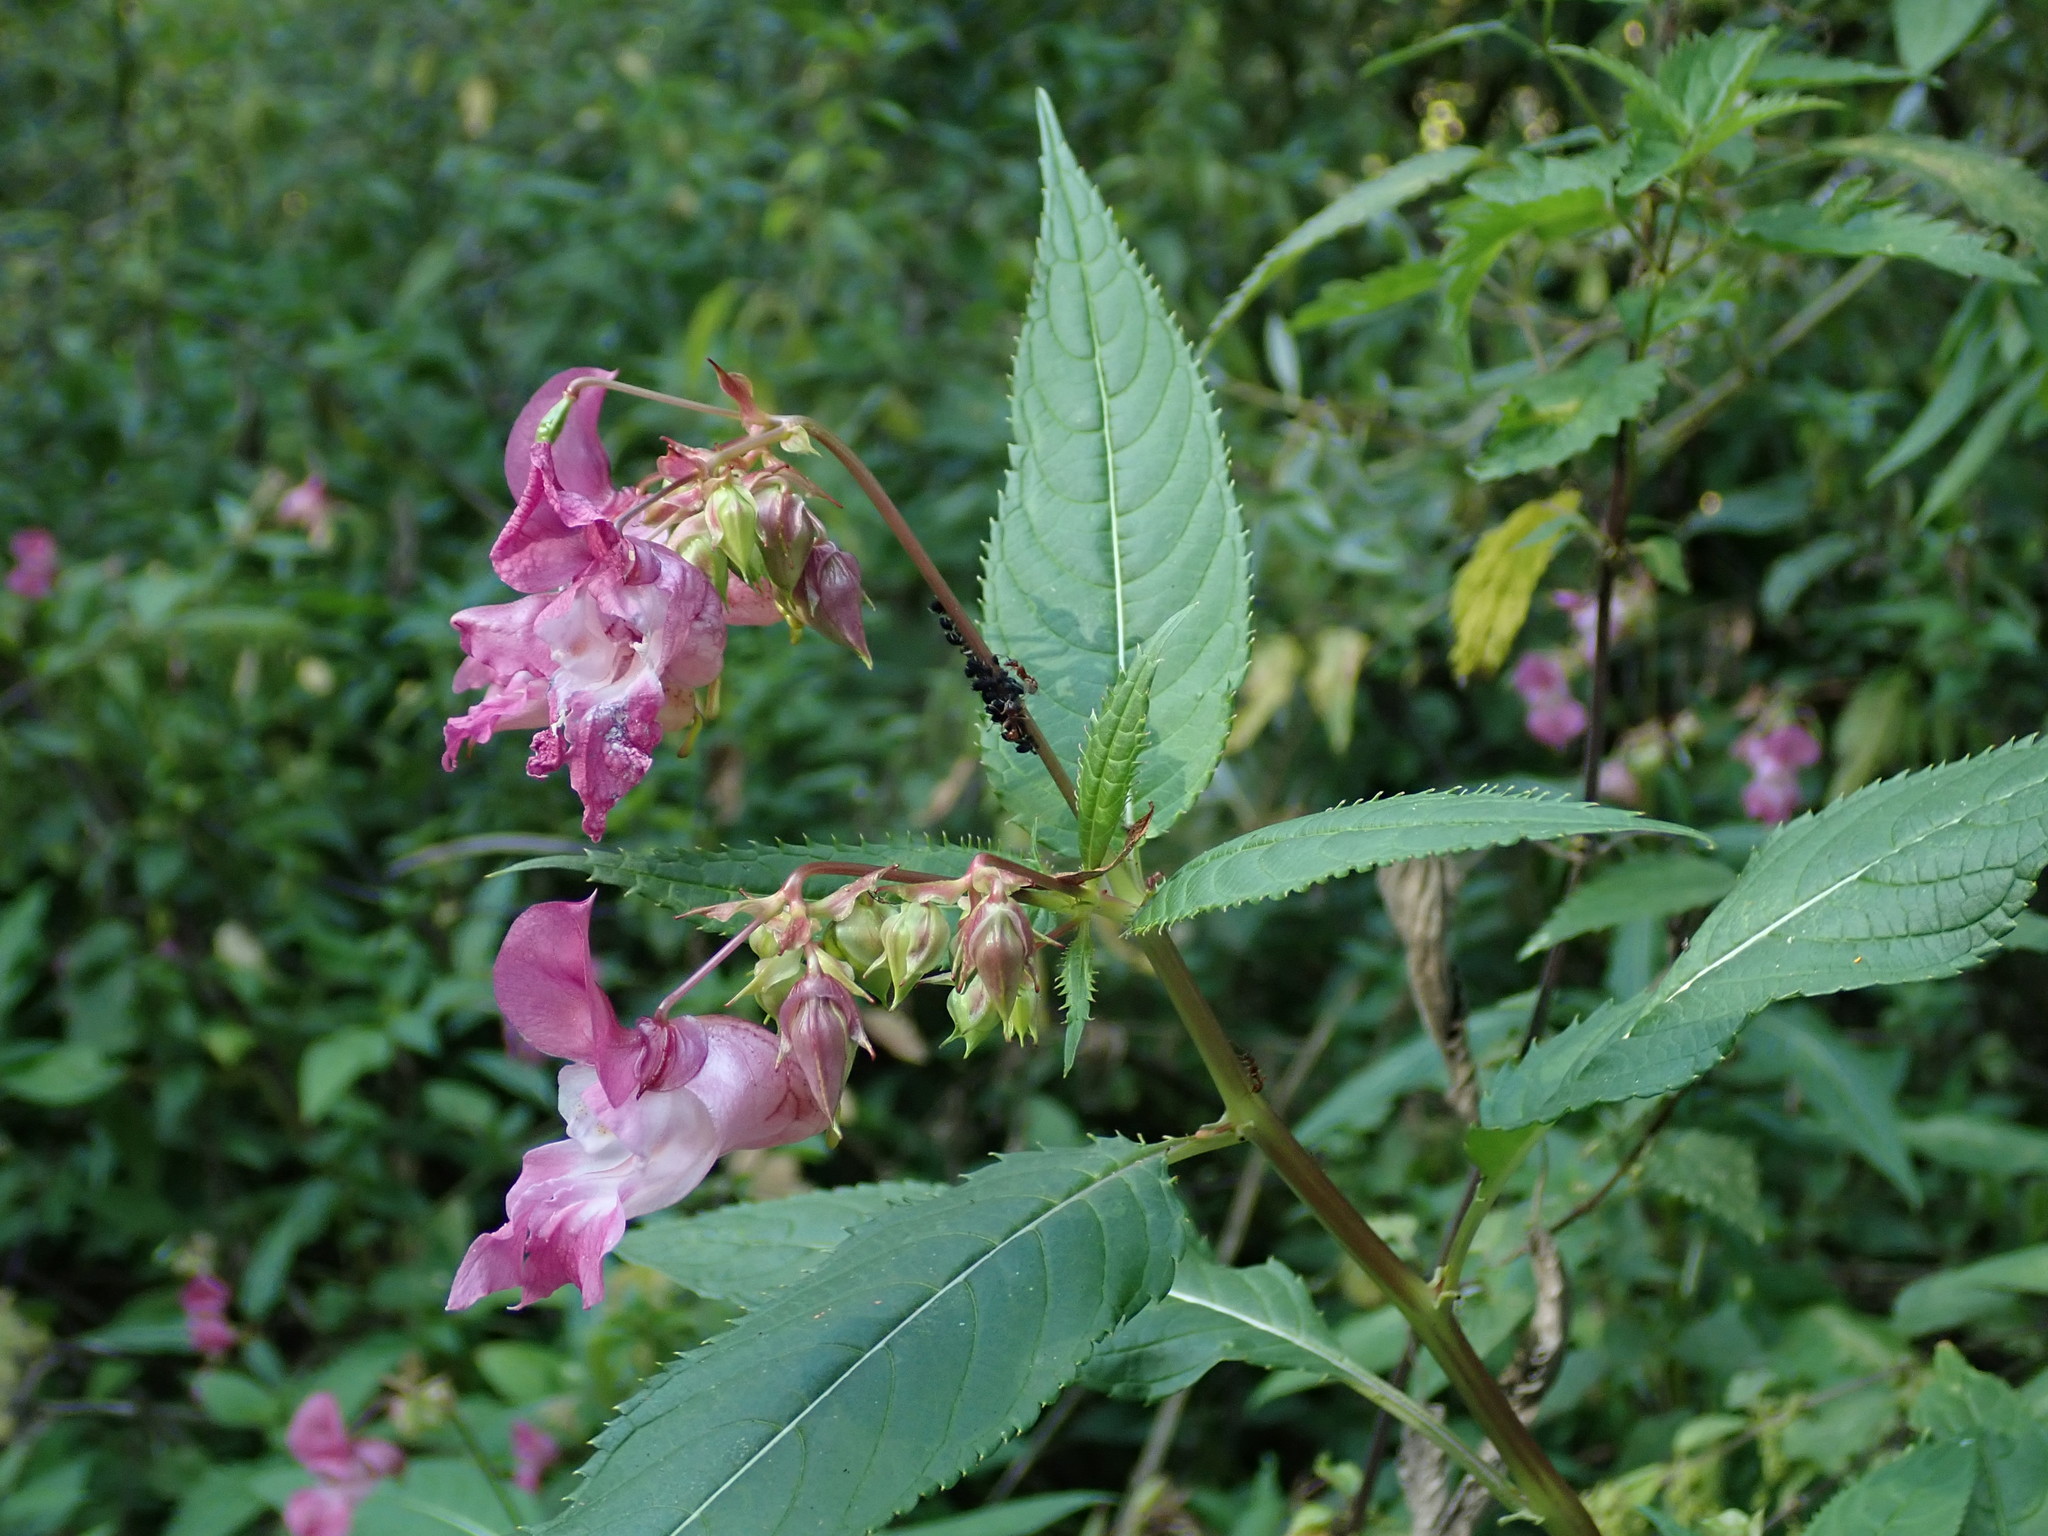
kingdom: Plantae
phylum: Tracheophyta
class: Magnoliopsida
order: Ericales
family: Balsaminaceae
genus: Impatiens
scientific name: Impatiens glandulifera
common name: Himalayan balsam
